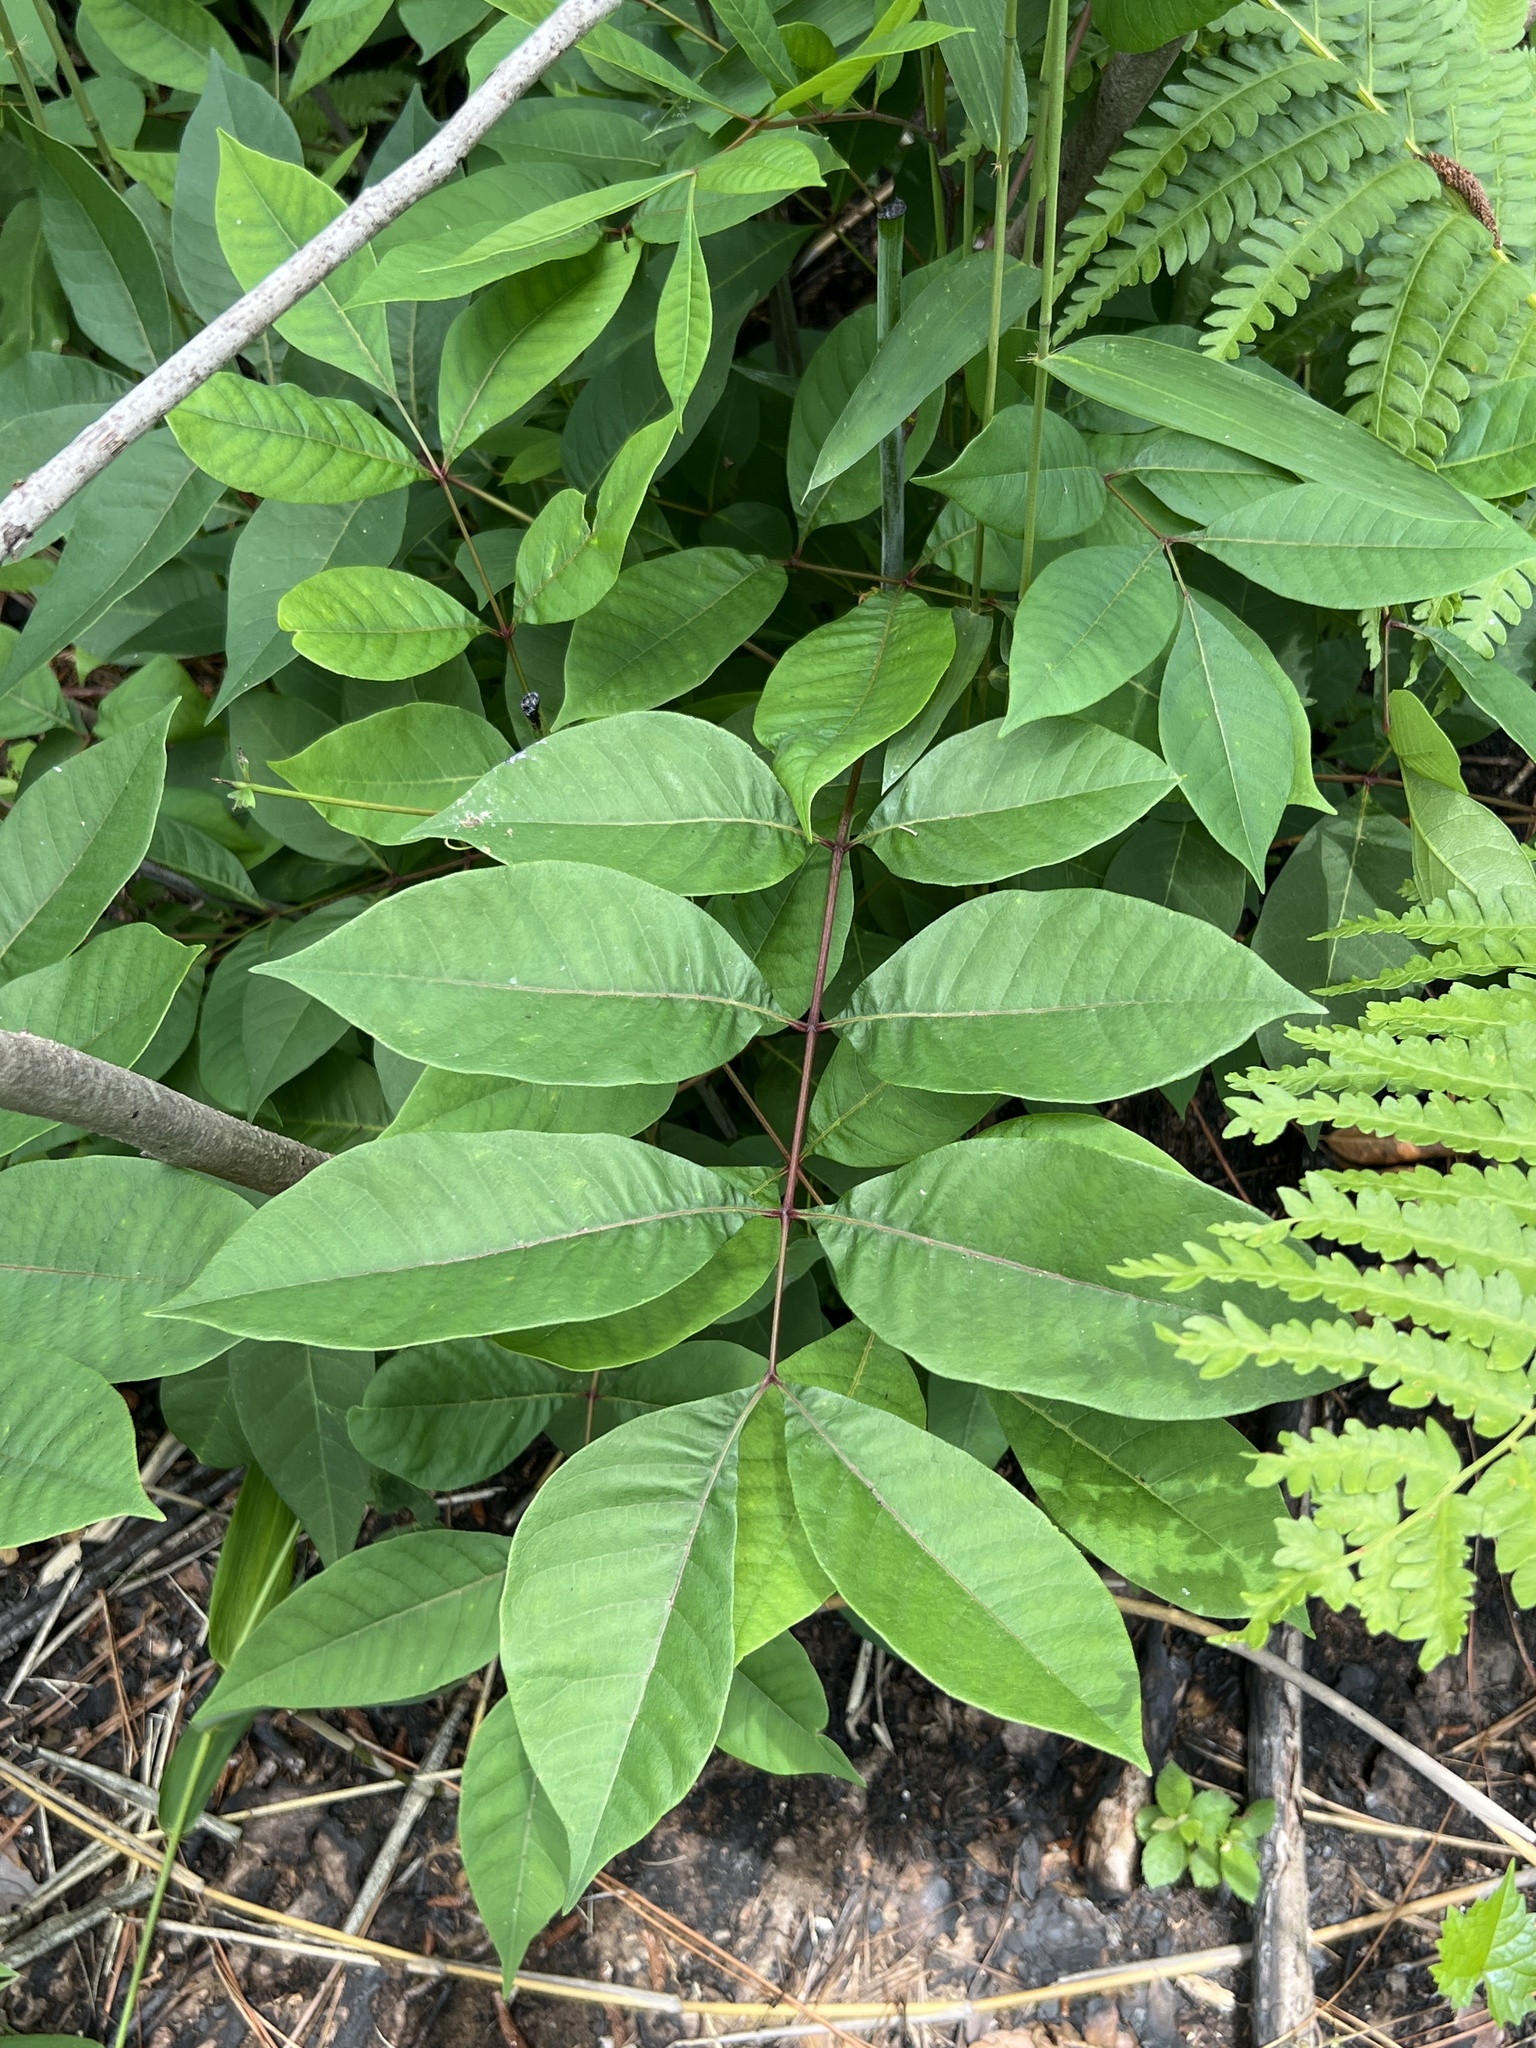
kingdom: Plantae
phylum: Tracheophyta
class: Magnoliopsida
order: Sapindales
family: Anacardiaceae
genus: Toxicodendron
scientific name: Toxicodendron vernix
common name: Poison sumac
